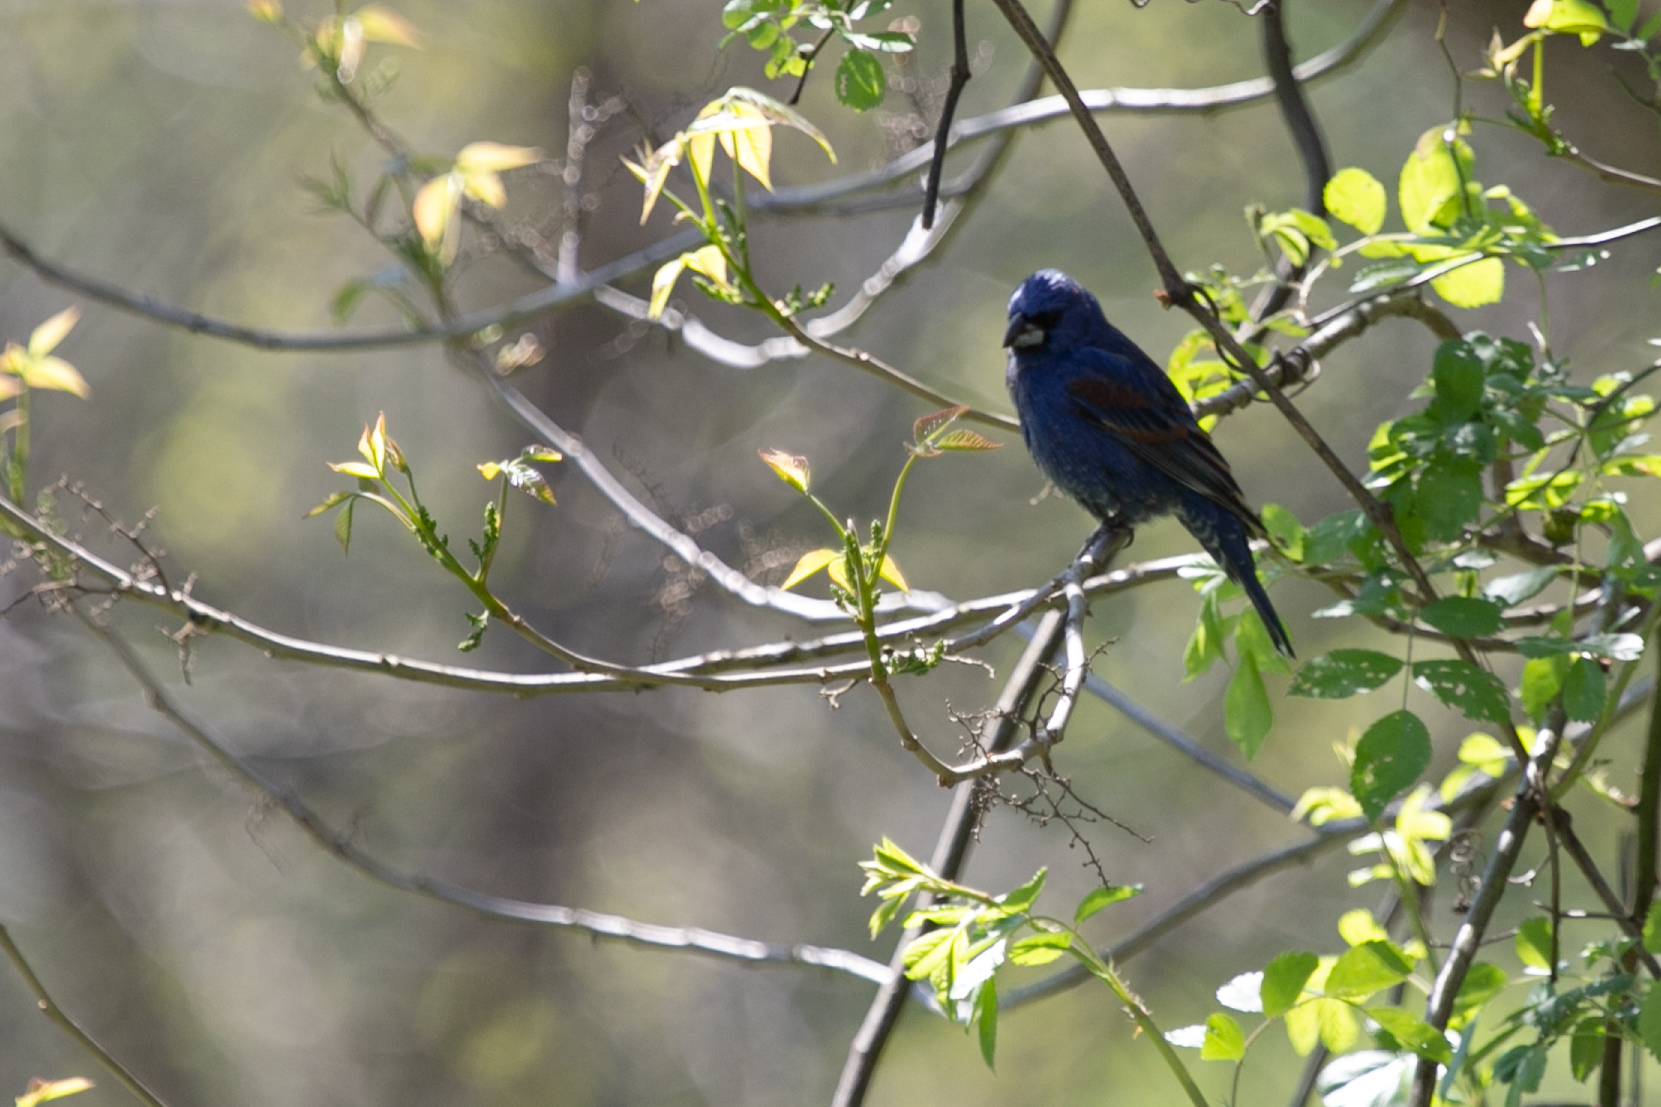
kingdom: Animalia
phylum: Chordata
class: Aves
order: Passeriformes
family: Cardinalidae
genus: Passerina
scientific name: Passerina caerulea
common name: Blue grosbeak
